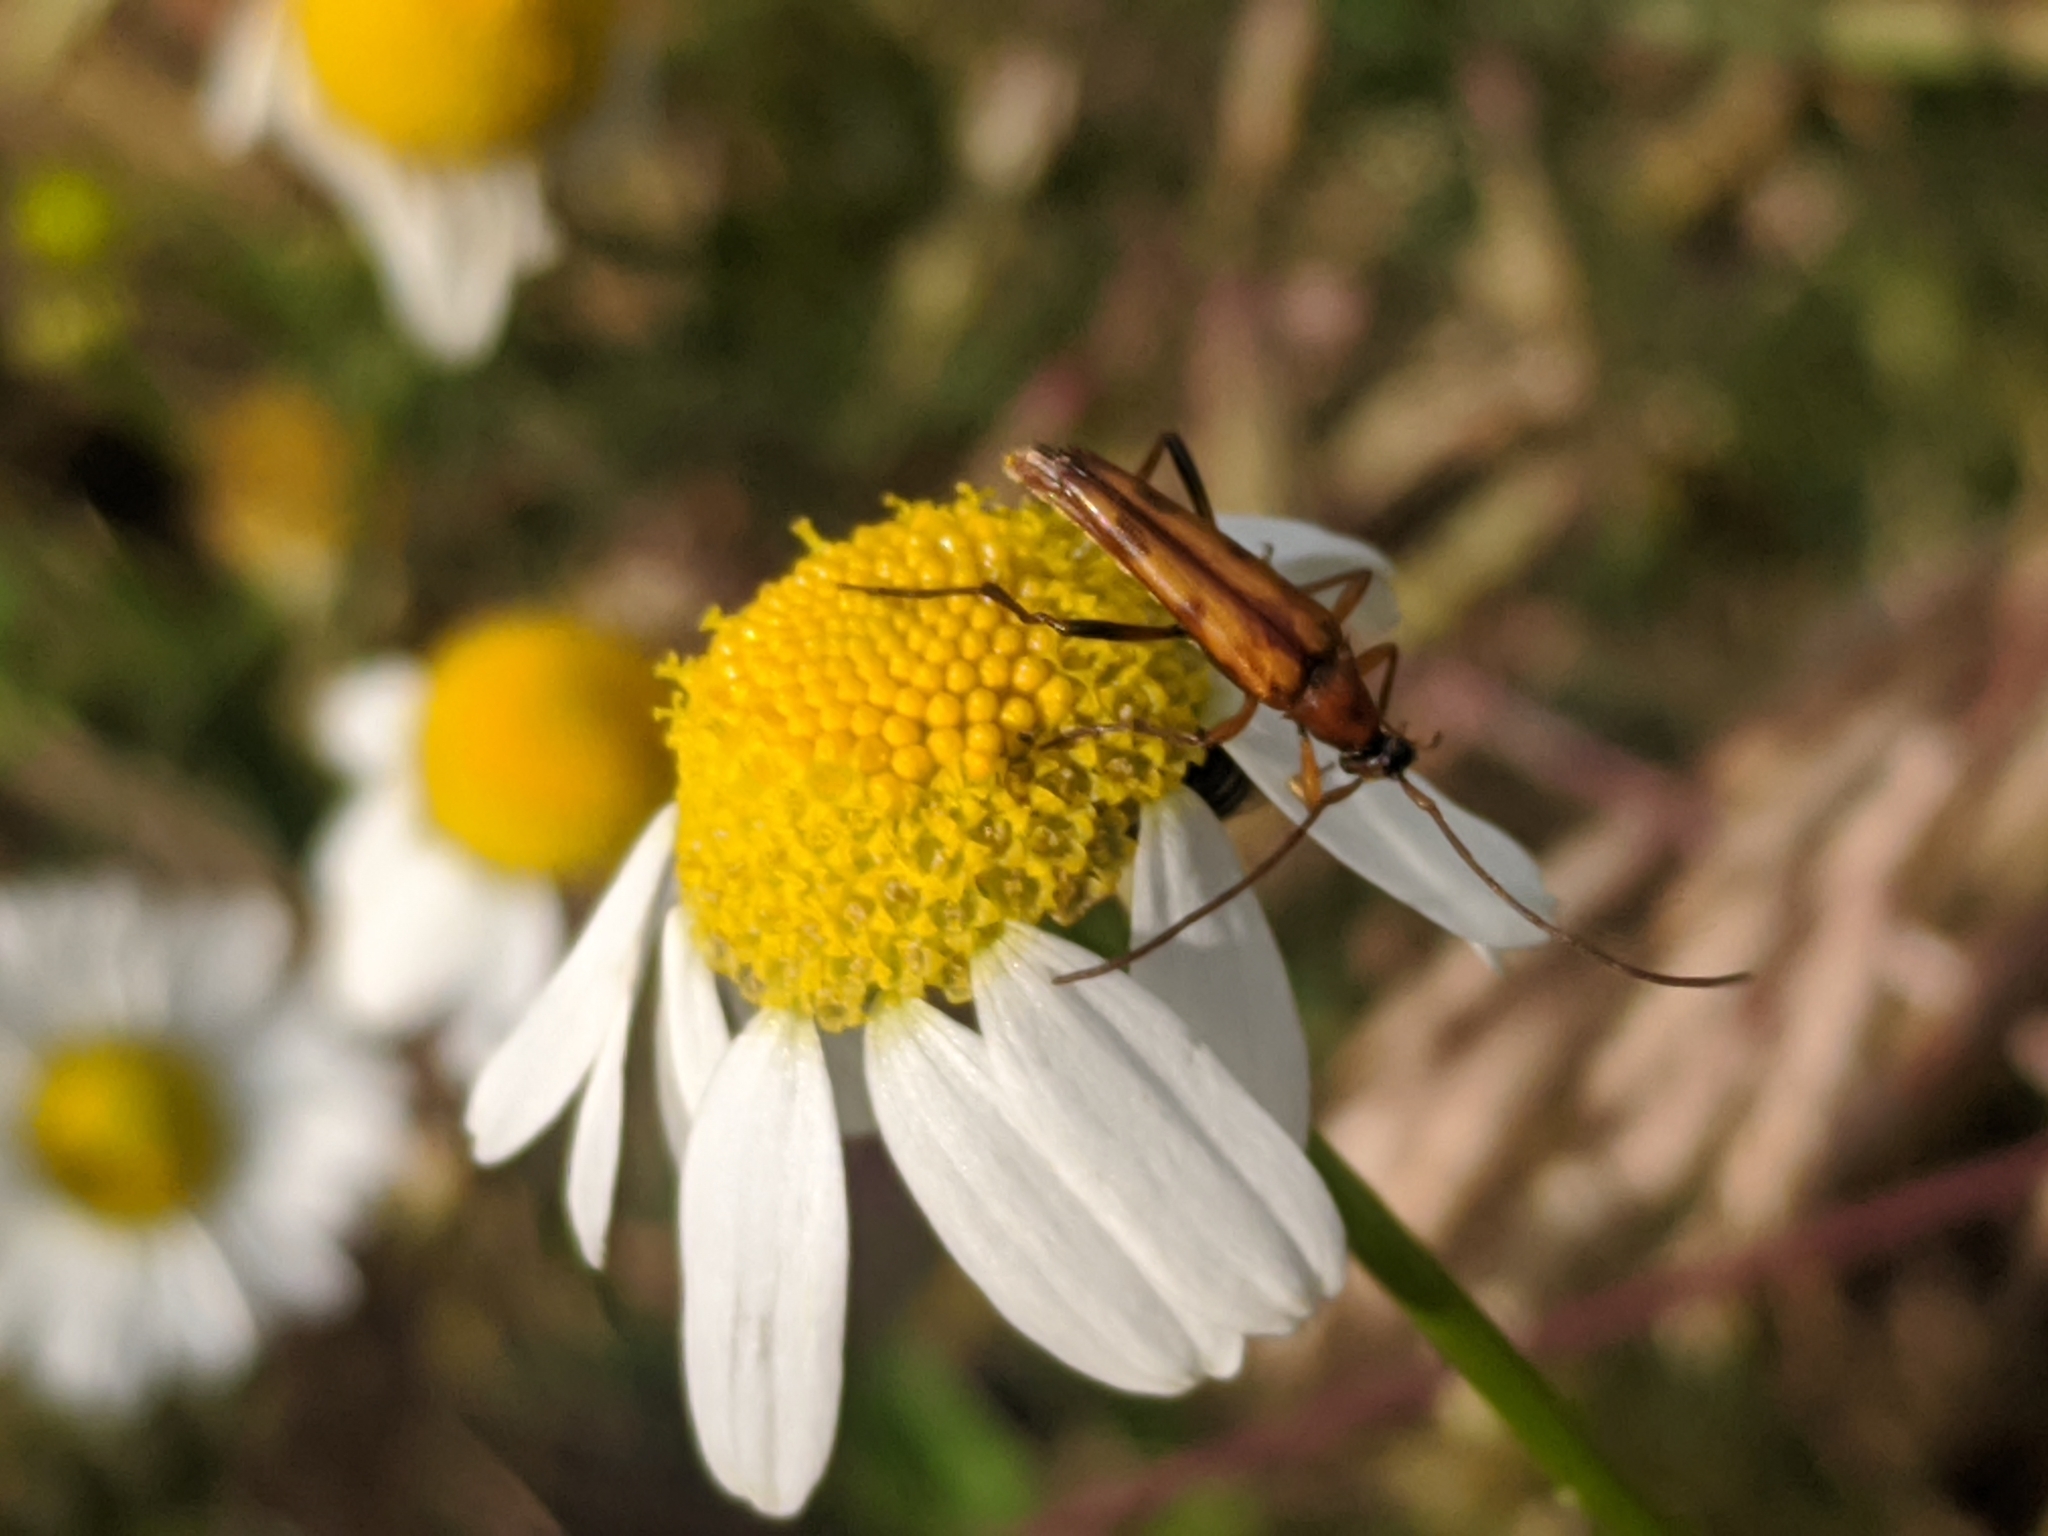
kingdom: Animalia
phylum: Arthropoda
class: Insecta
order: Coleoptera
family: Cerambycidae
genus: Stenurella
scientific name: Stenurella septempunctata
